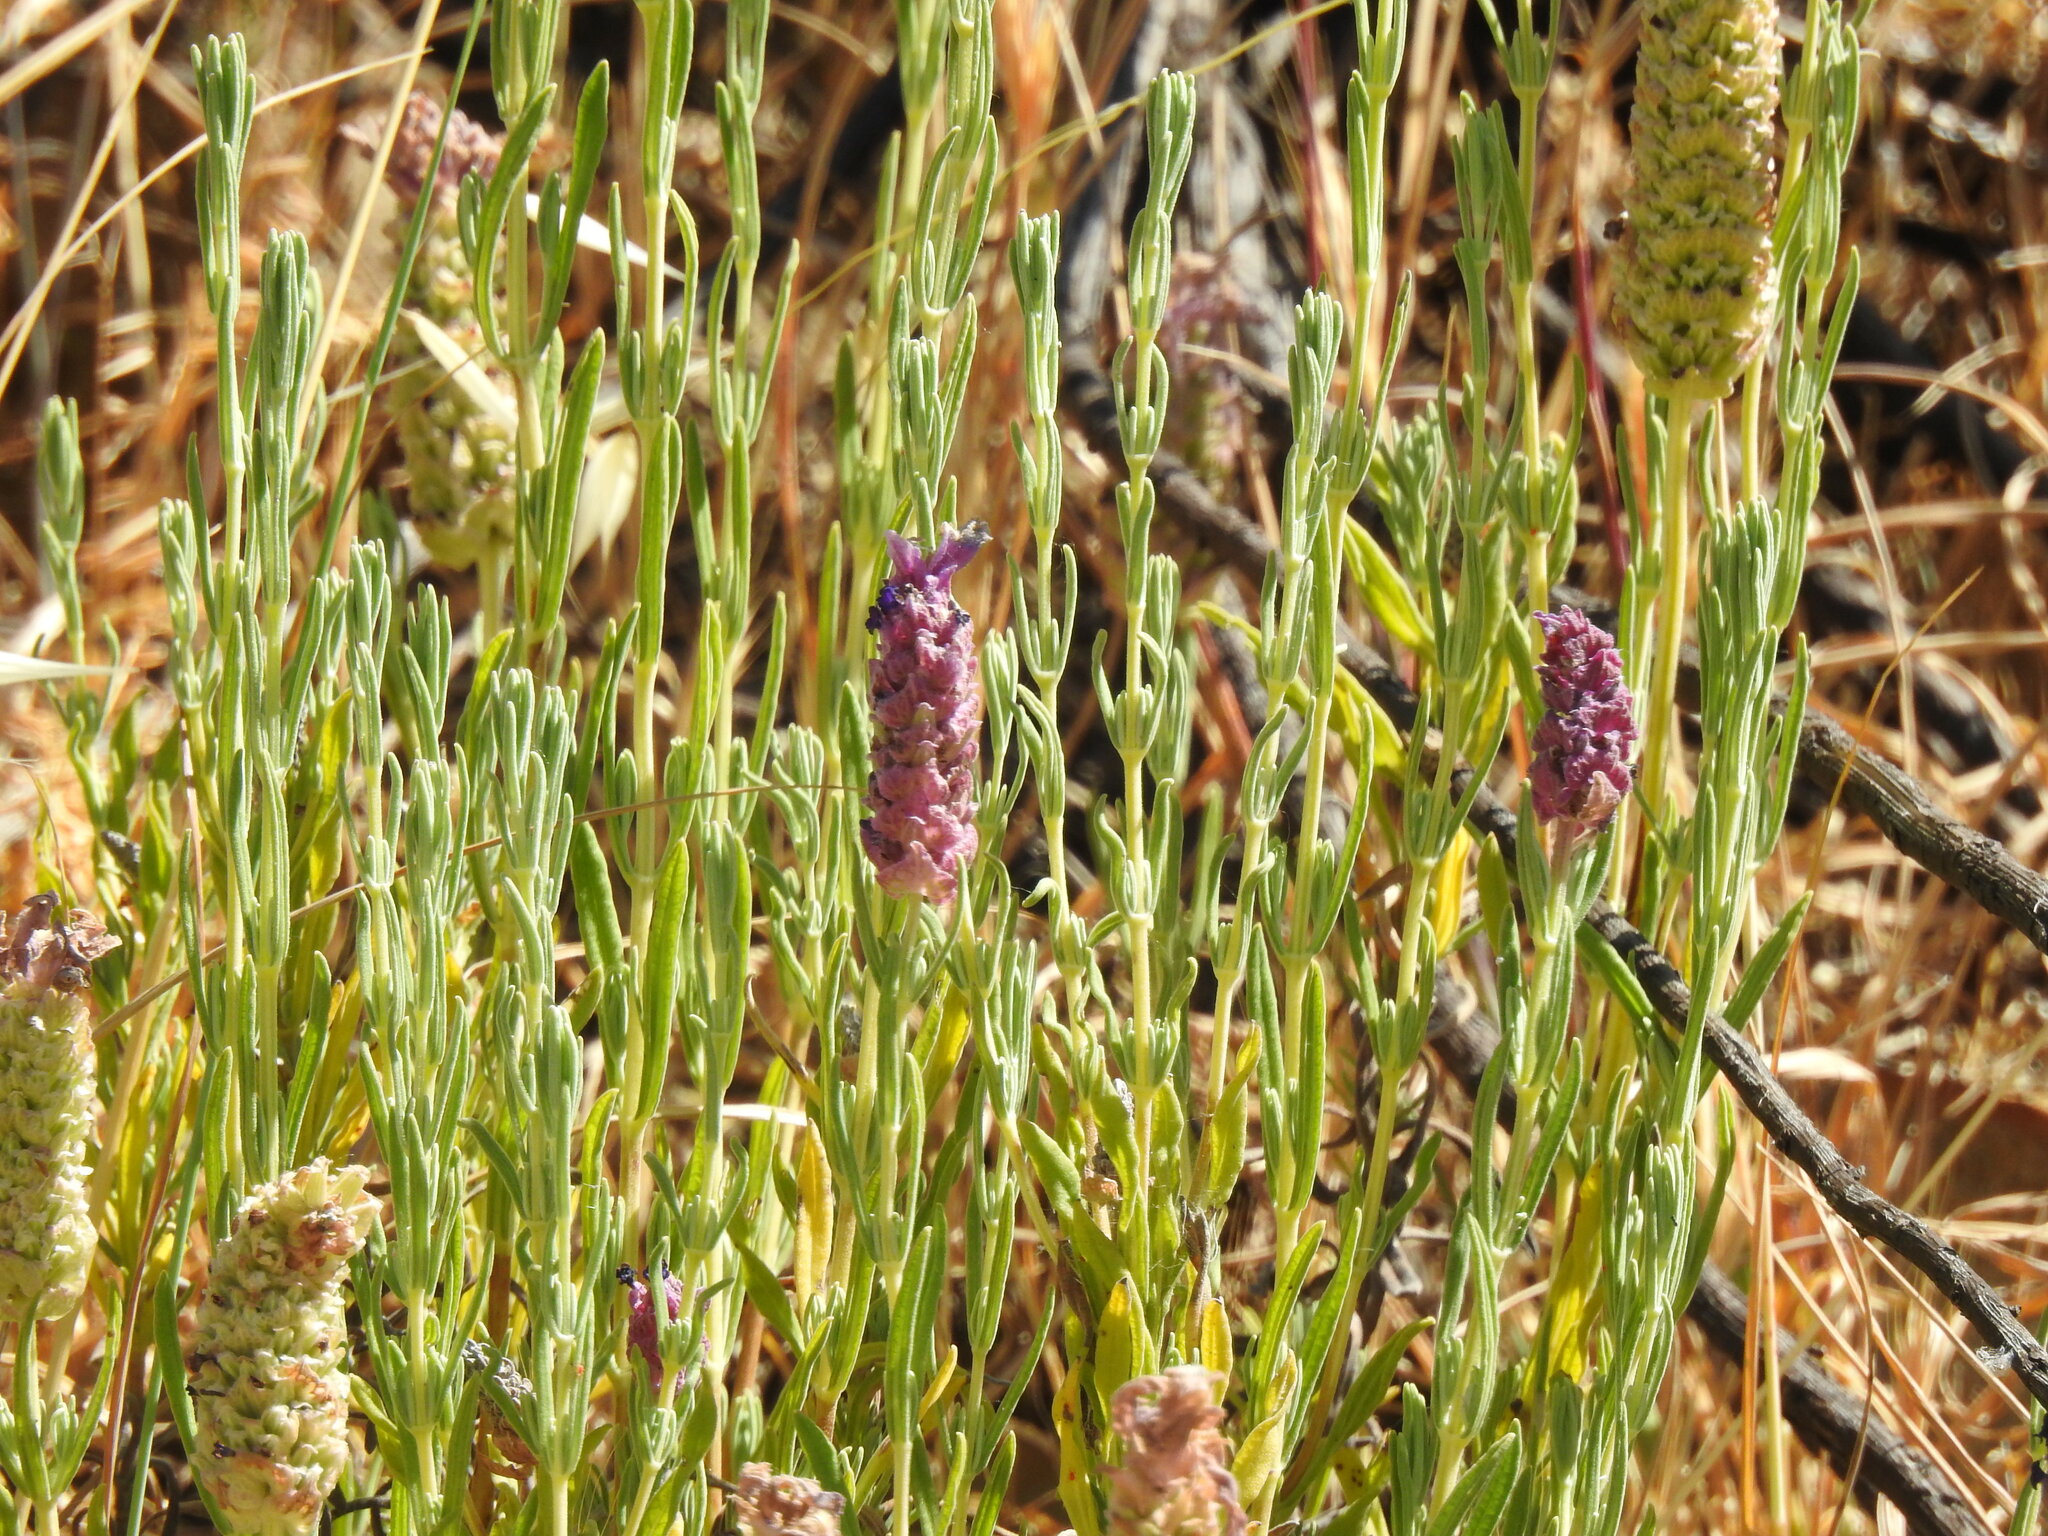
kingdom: Plantae
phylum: Tracheophyta
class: Magnoliopsida
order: Lamiales
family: Lamiaceae
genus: Lavandula
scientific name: Lavandula stoechas
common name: French lavender
